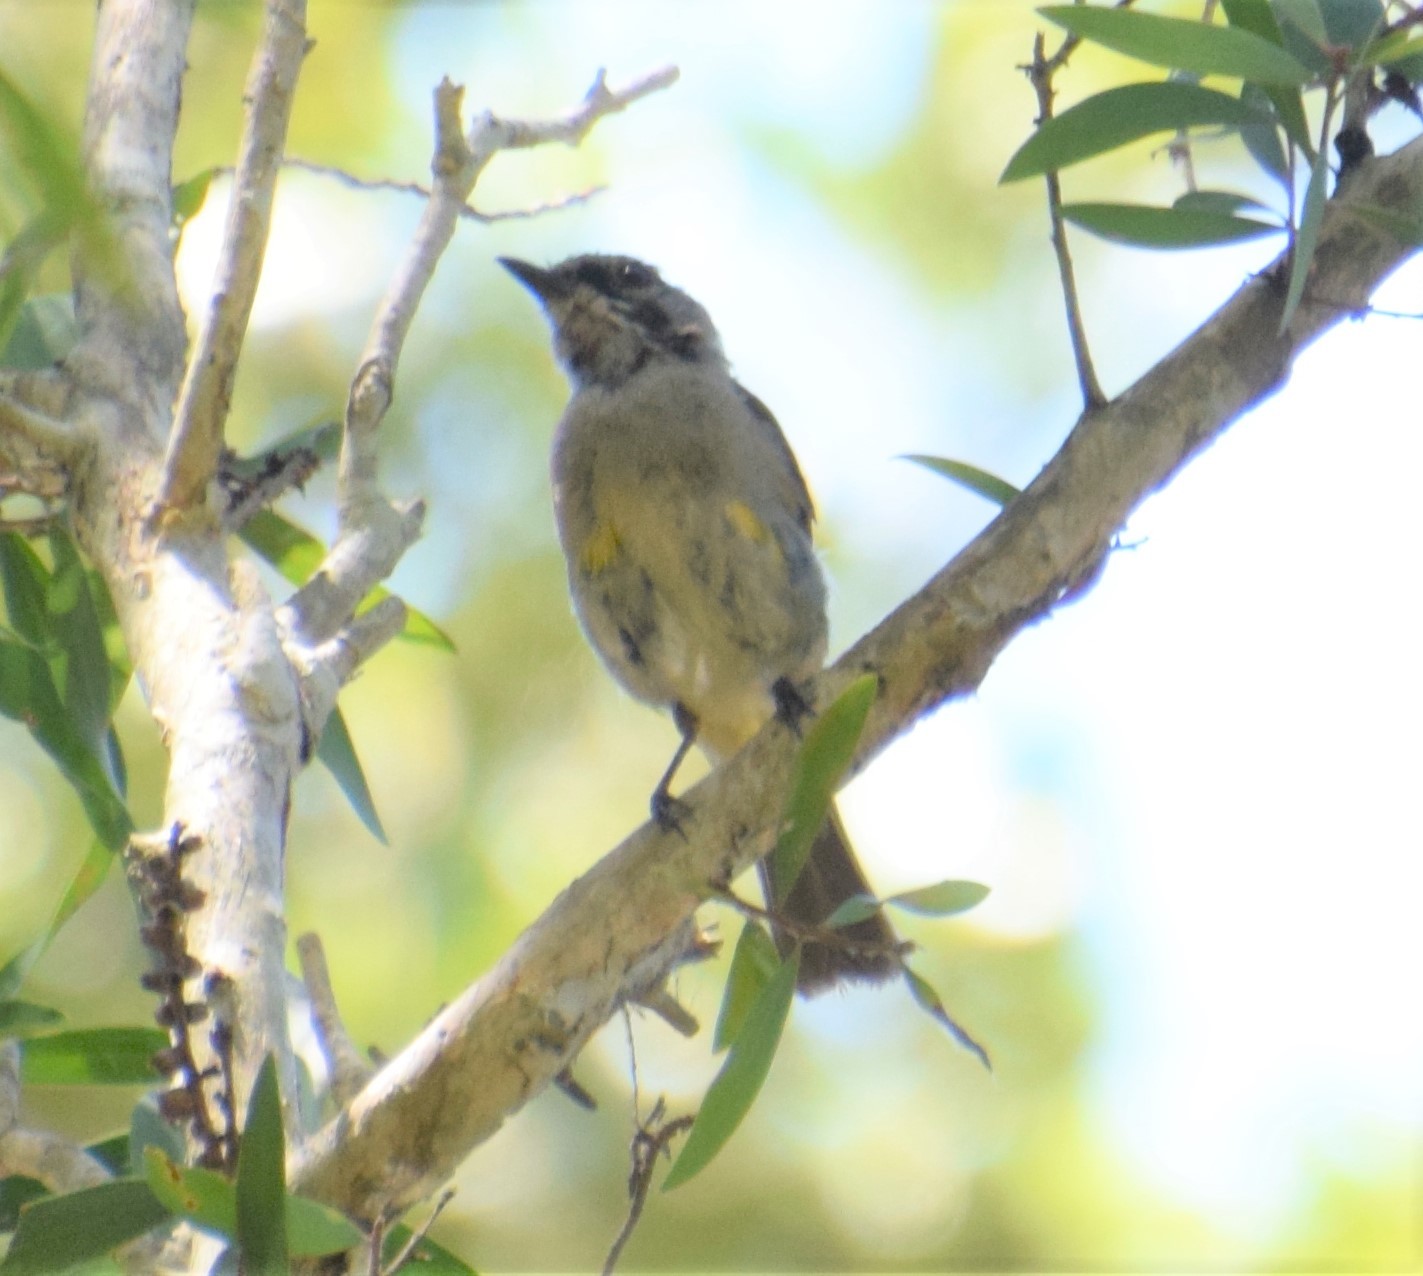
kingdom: Animalia
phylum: Chordata
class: Aves
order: Passeriformes
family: Pachycephalidae
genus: Pachycephala
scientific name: Pachycephala pectoralis
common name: Australian golden whistler
